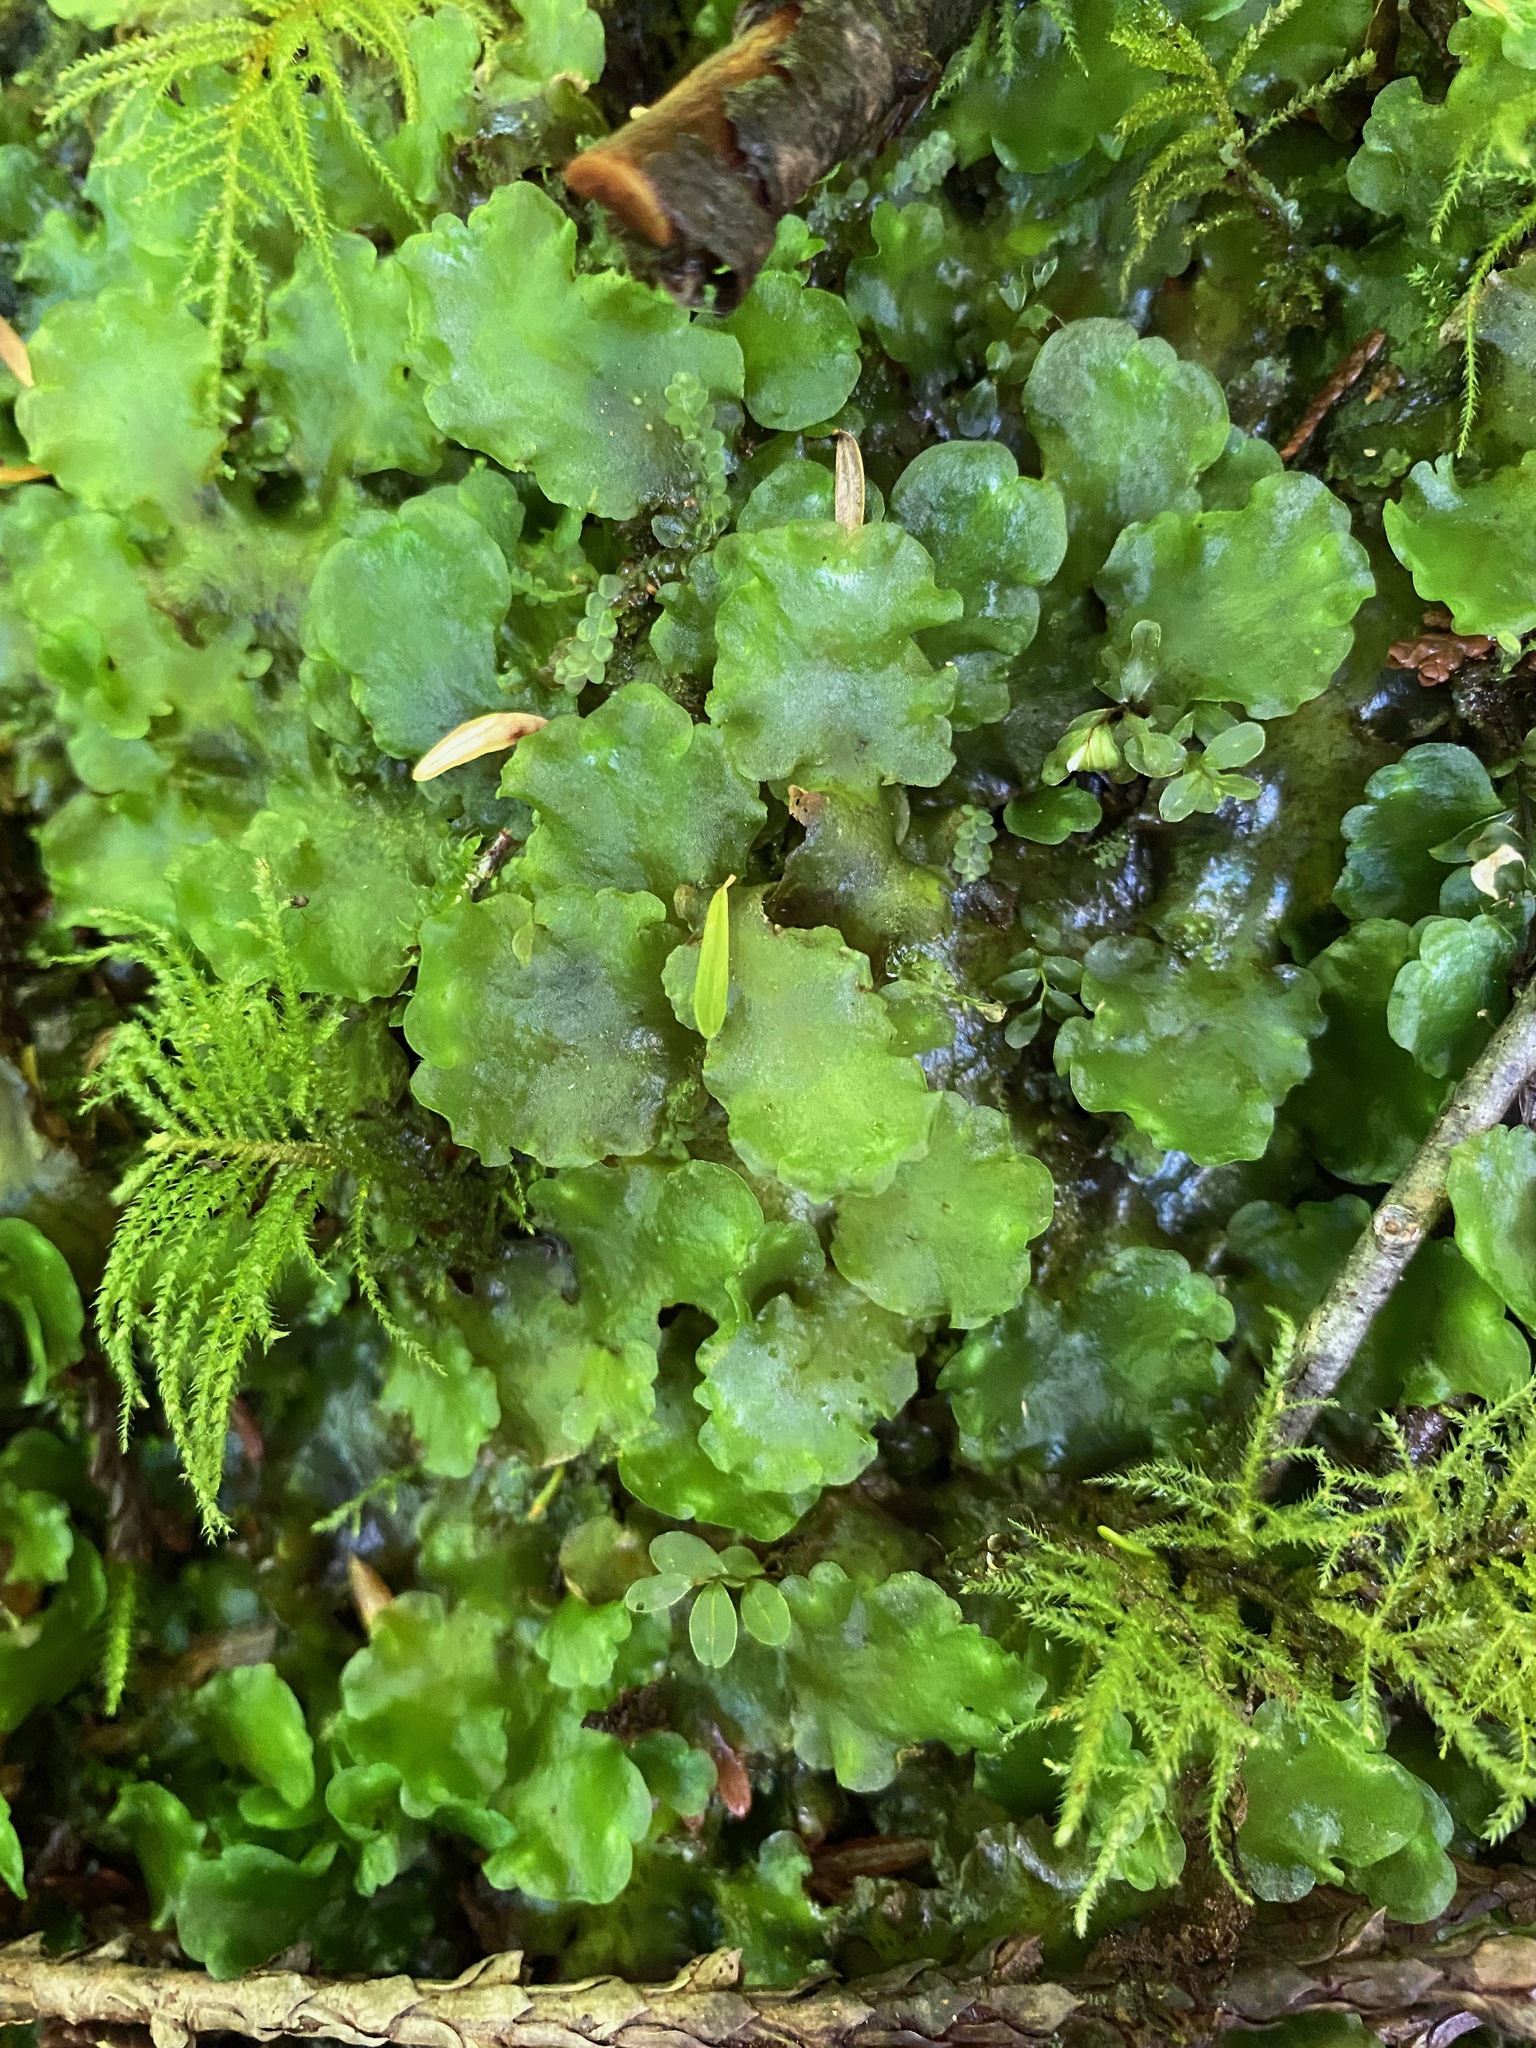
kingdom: Plantae
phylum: Marchantiophyta
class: Jungermanniopsida
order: Pelliales
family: Pelliaceae
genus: Pellia
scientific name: Pellia neesiana
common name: Nees  pellia
